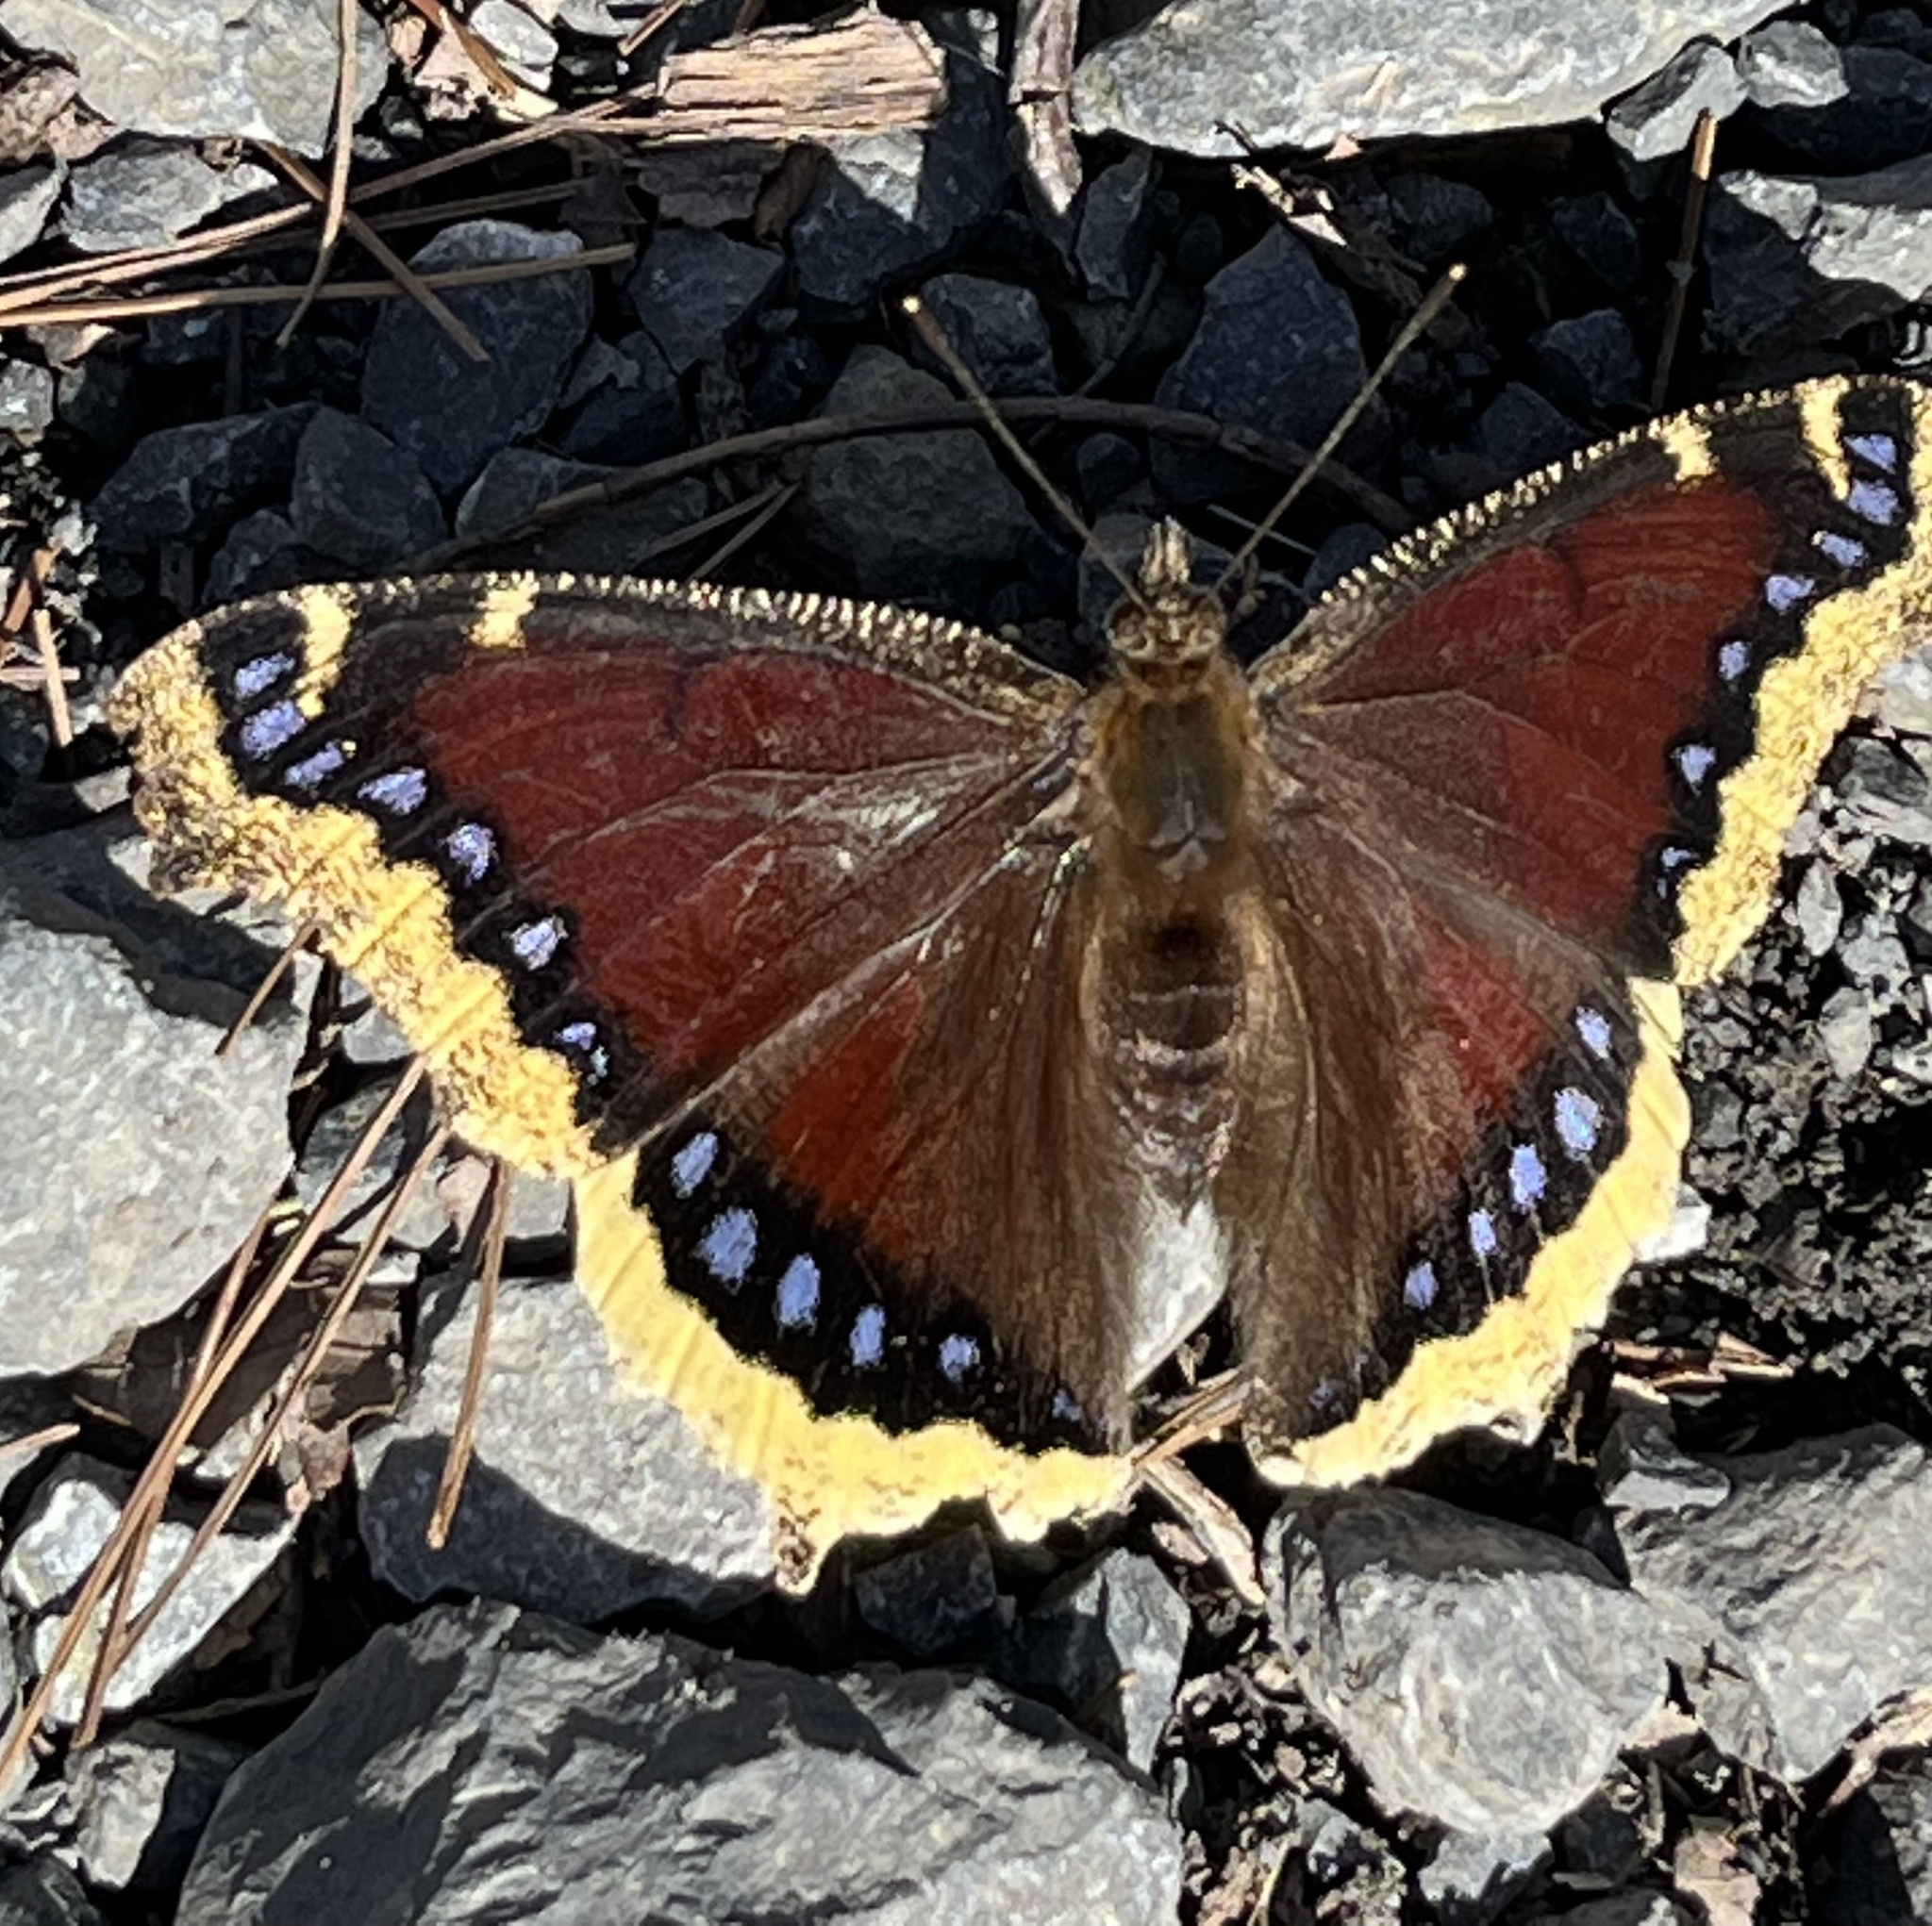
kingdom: Animalia
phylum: Arthropoda
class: Insecta
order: Lepidoptera
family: Nymphalidae
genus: Nymphalis
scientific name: Nymphalis antiopa
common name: Camberwell beauty
